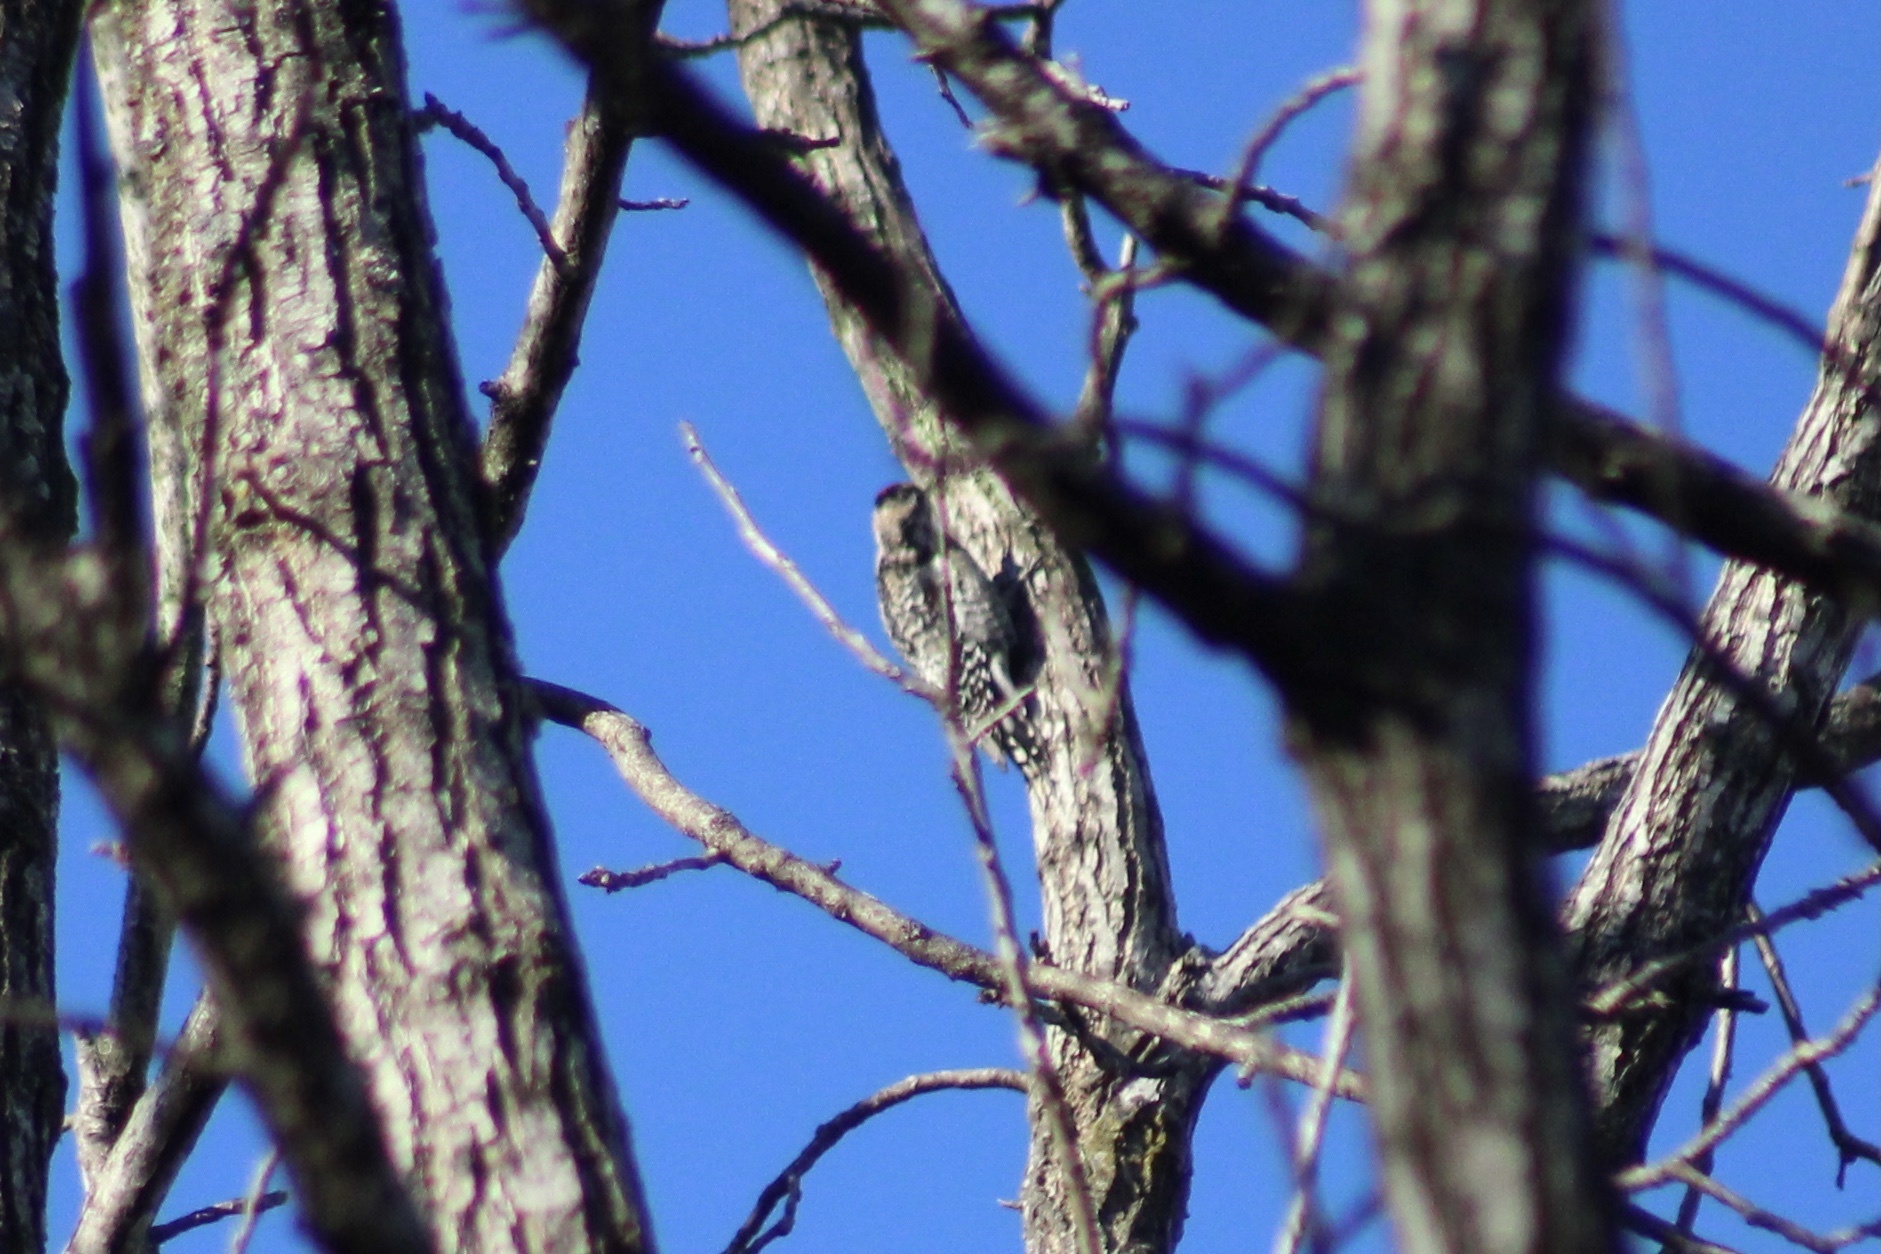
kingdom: Animalia
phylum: Chordata
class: Aves
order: Piciformes
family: Picidae
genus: Sphyrapicus
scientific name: Sphyrapicus varius
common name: Yellow-bellied sapsucker
